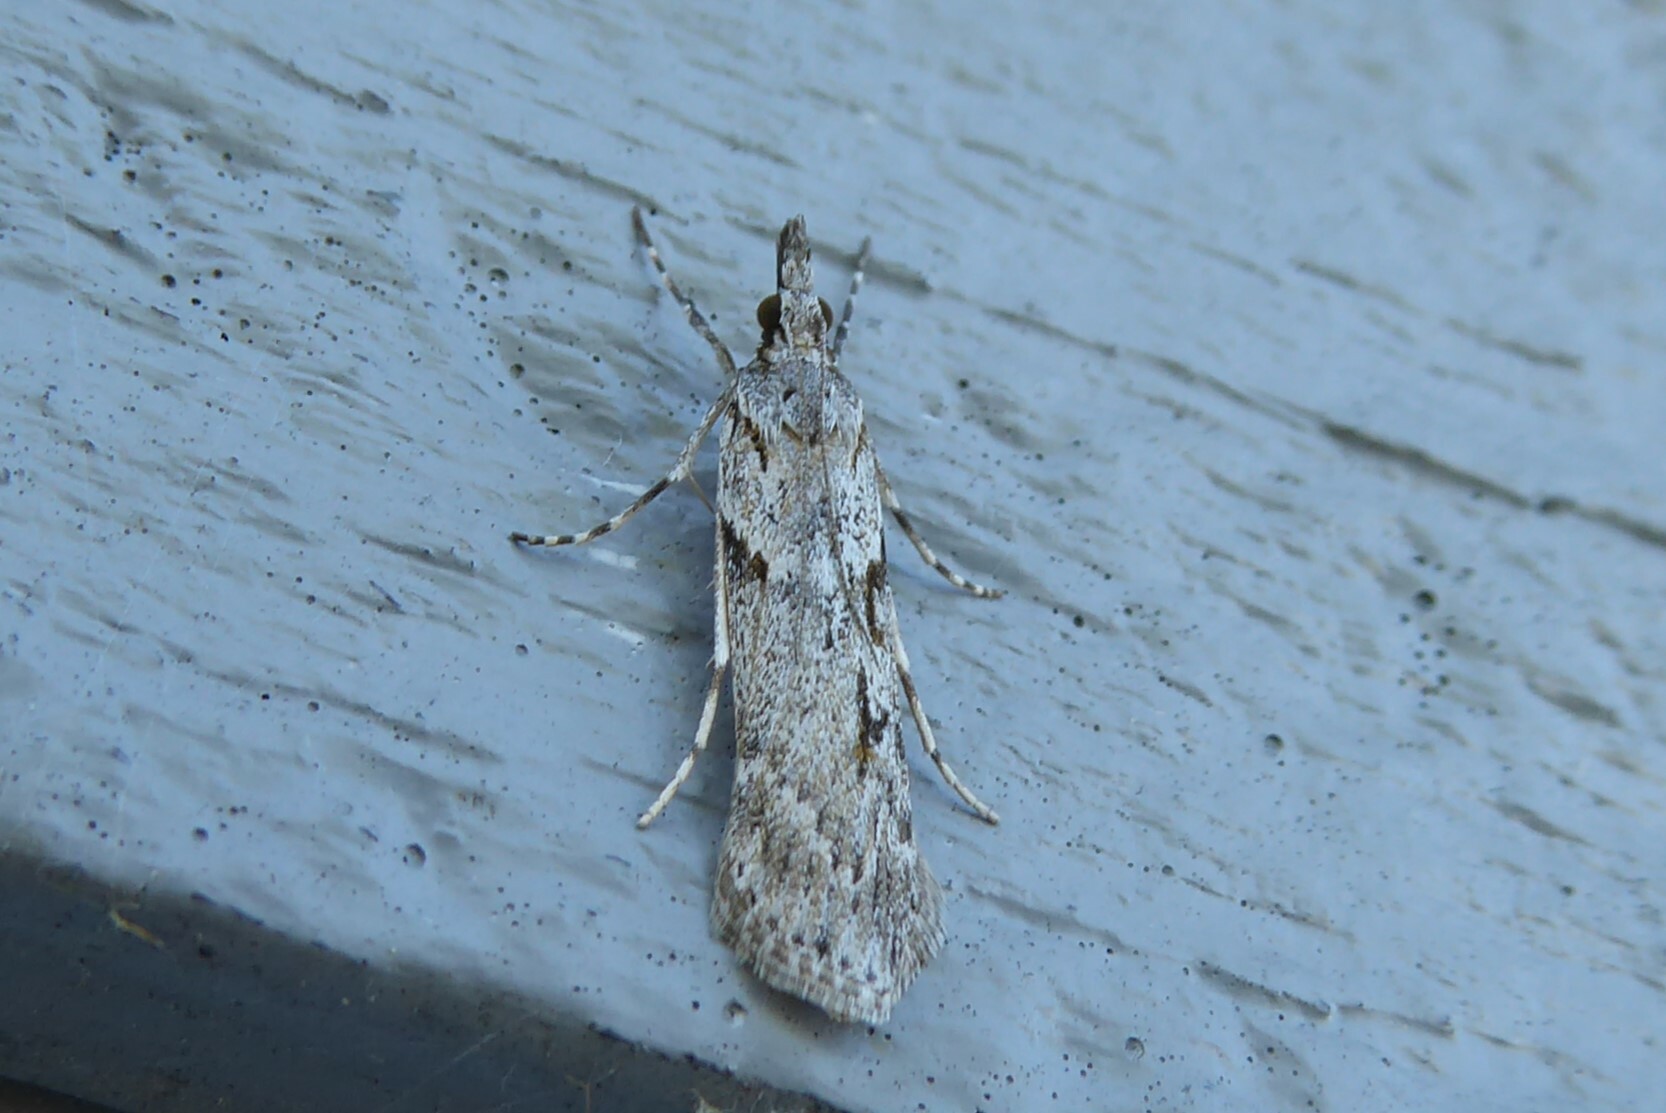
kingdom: Animalia
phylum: Arthropoda
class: Insecta
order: Lepidoptera
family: Crambidae
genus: Scoparia
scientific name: Scoparia halopis
